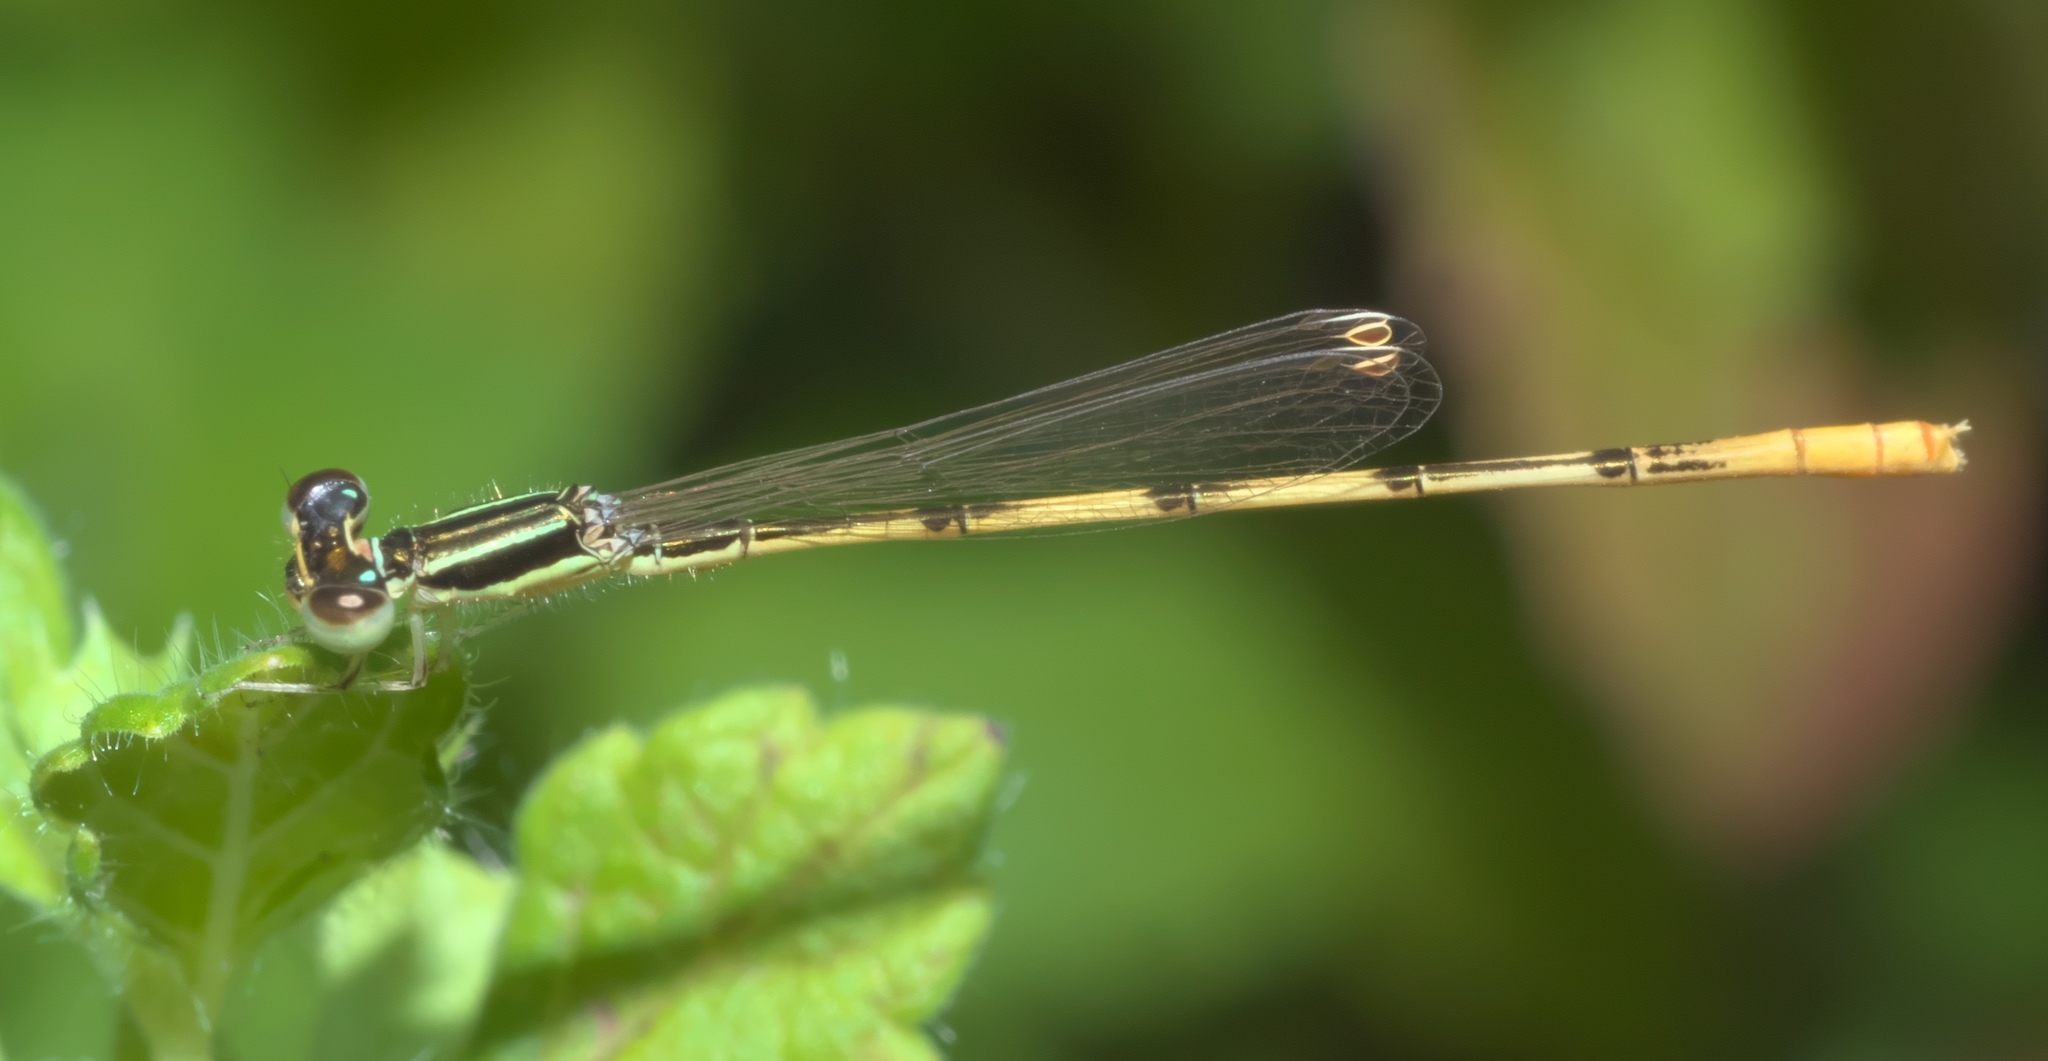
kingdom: Animalia
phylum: Arthropoda
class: Insecta
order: Odonata
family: Coenagrionidae
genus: Ischnura
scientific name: Ischnura hastata
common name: Citrine forktail
